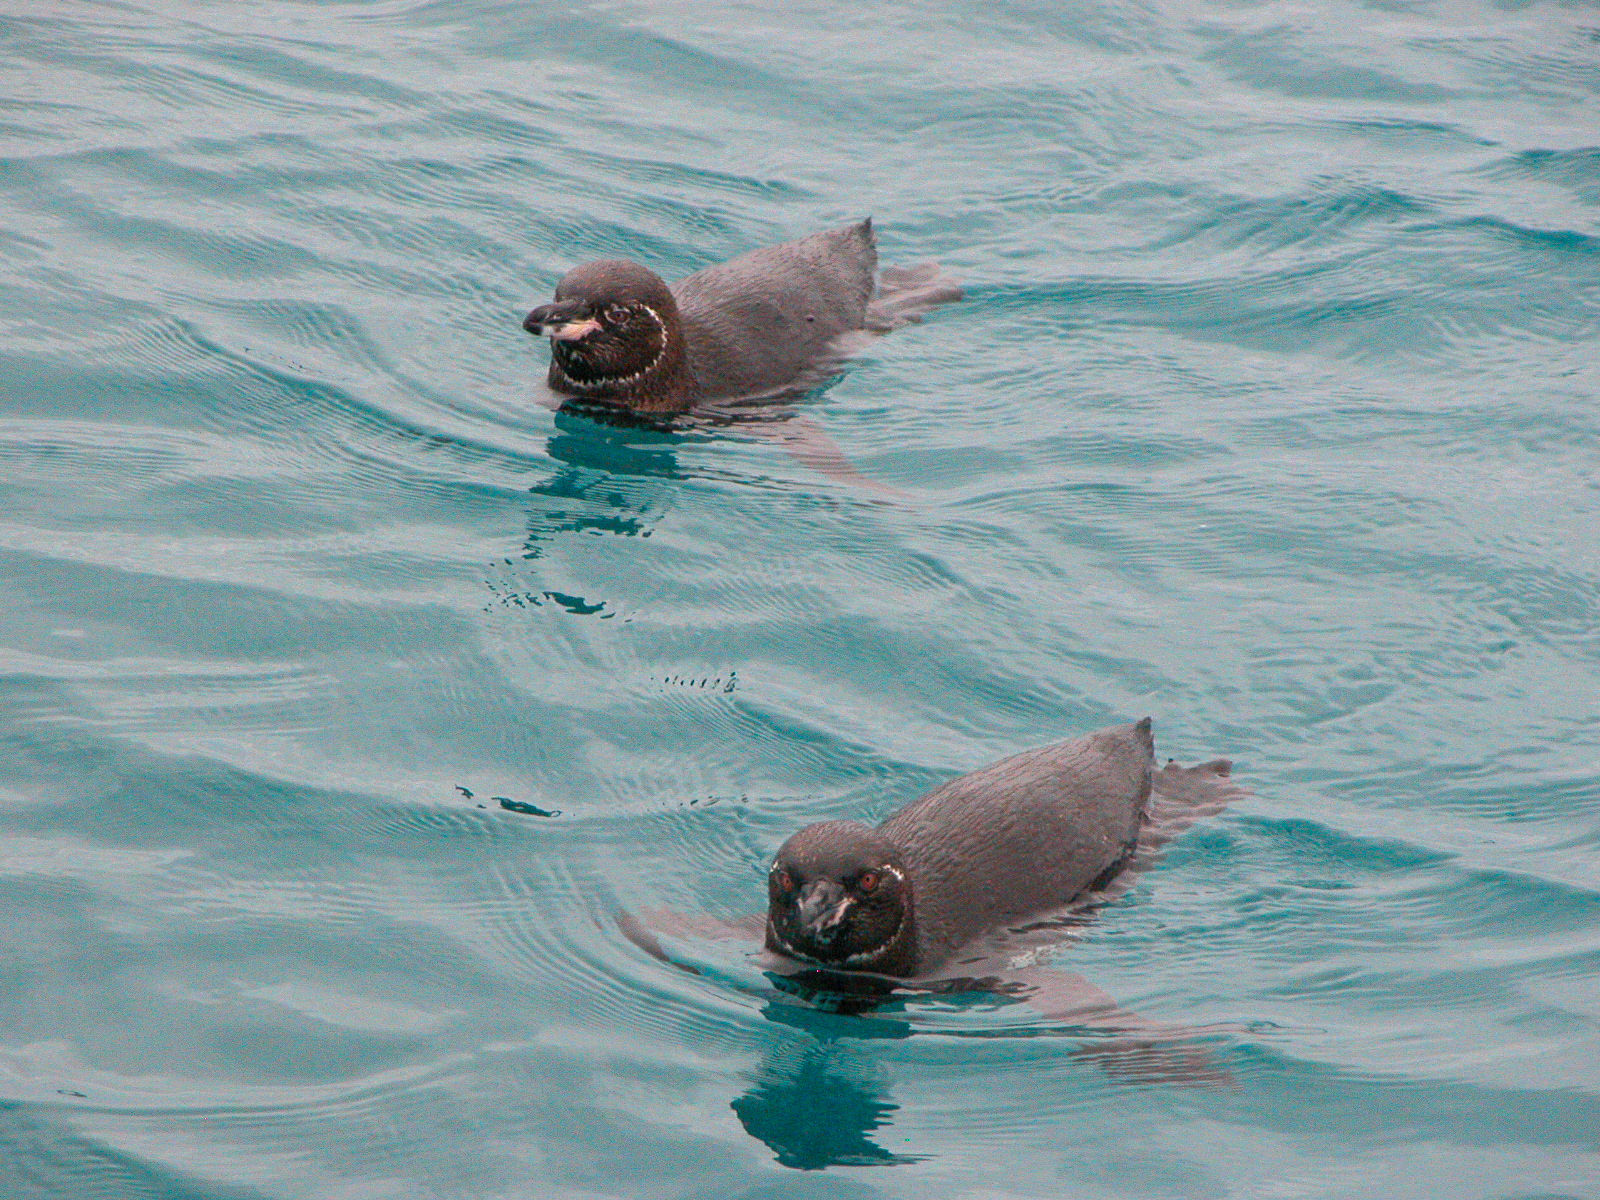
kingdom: Animalia
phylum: Chordata
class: Aves
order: Sphenisciformes
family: Spheniscidae
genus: Spheniscus
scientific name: Spheniscus mendiculus
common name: Galapagos penguin
